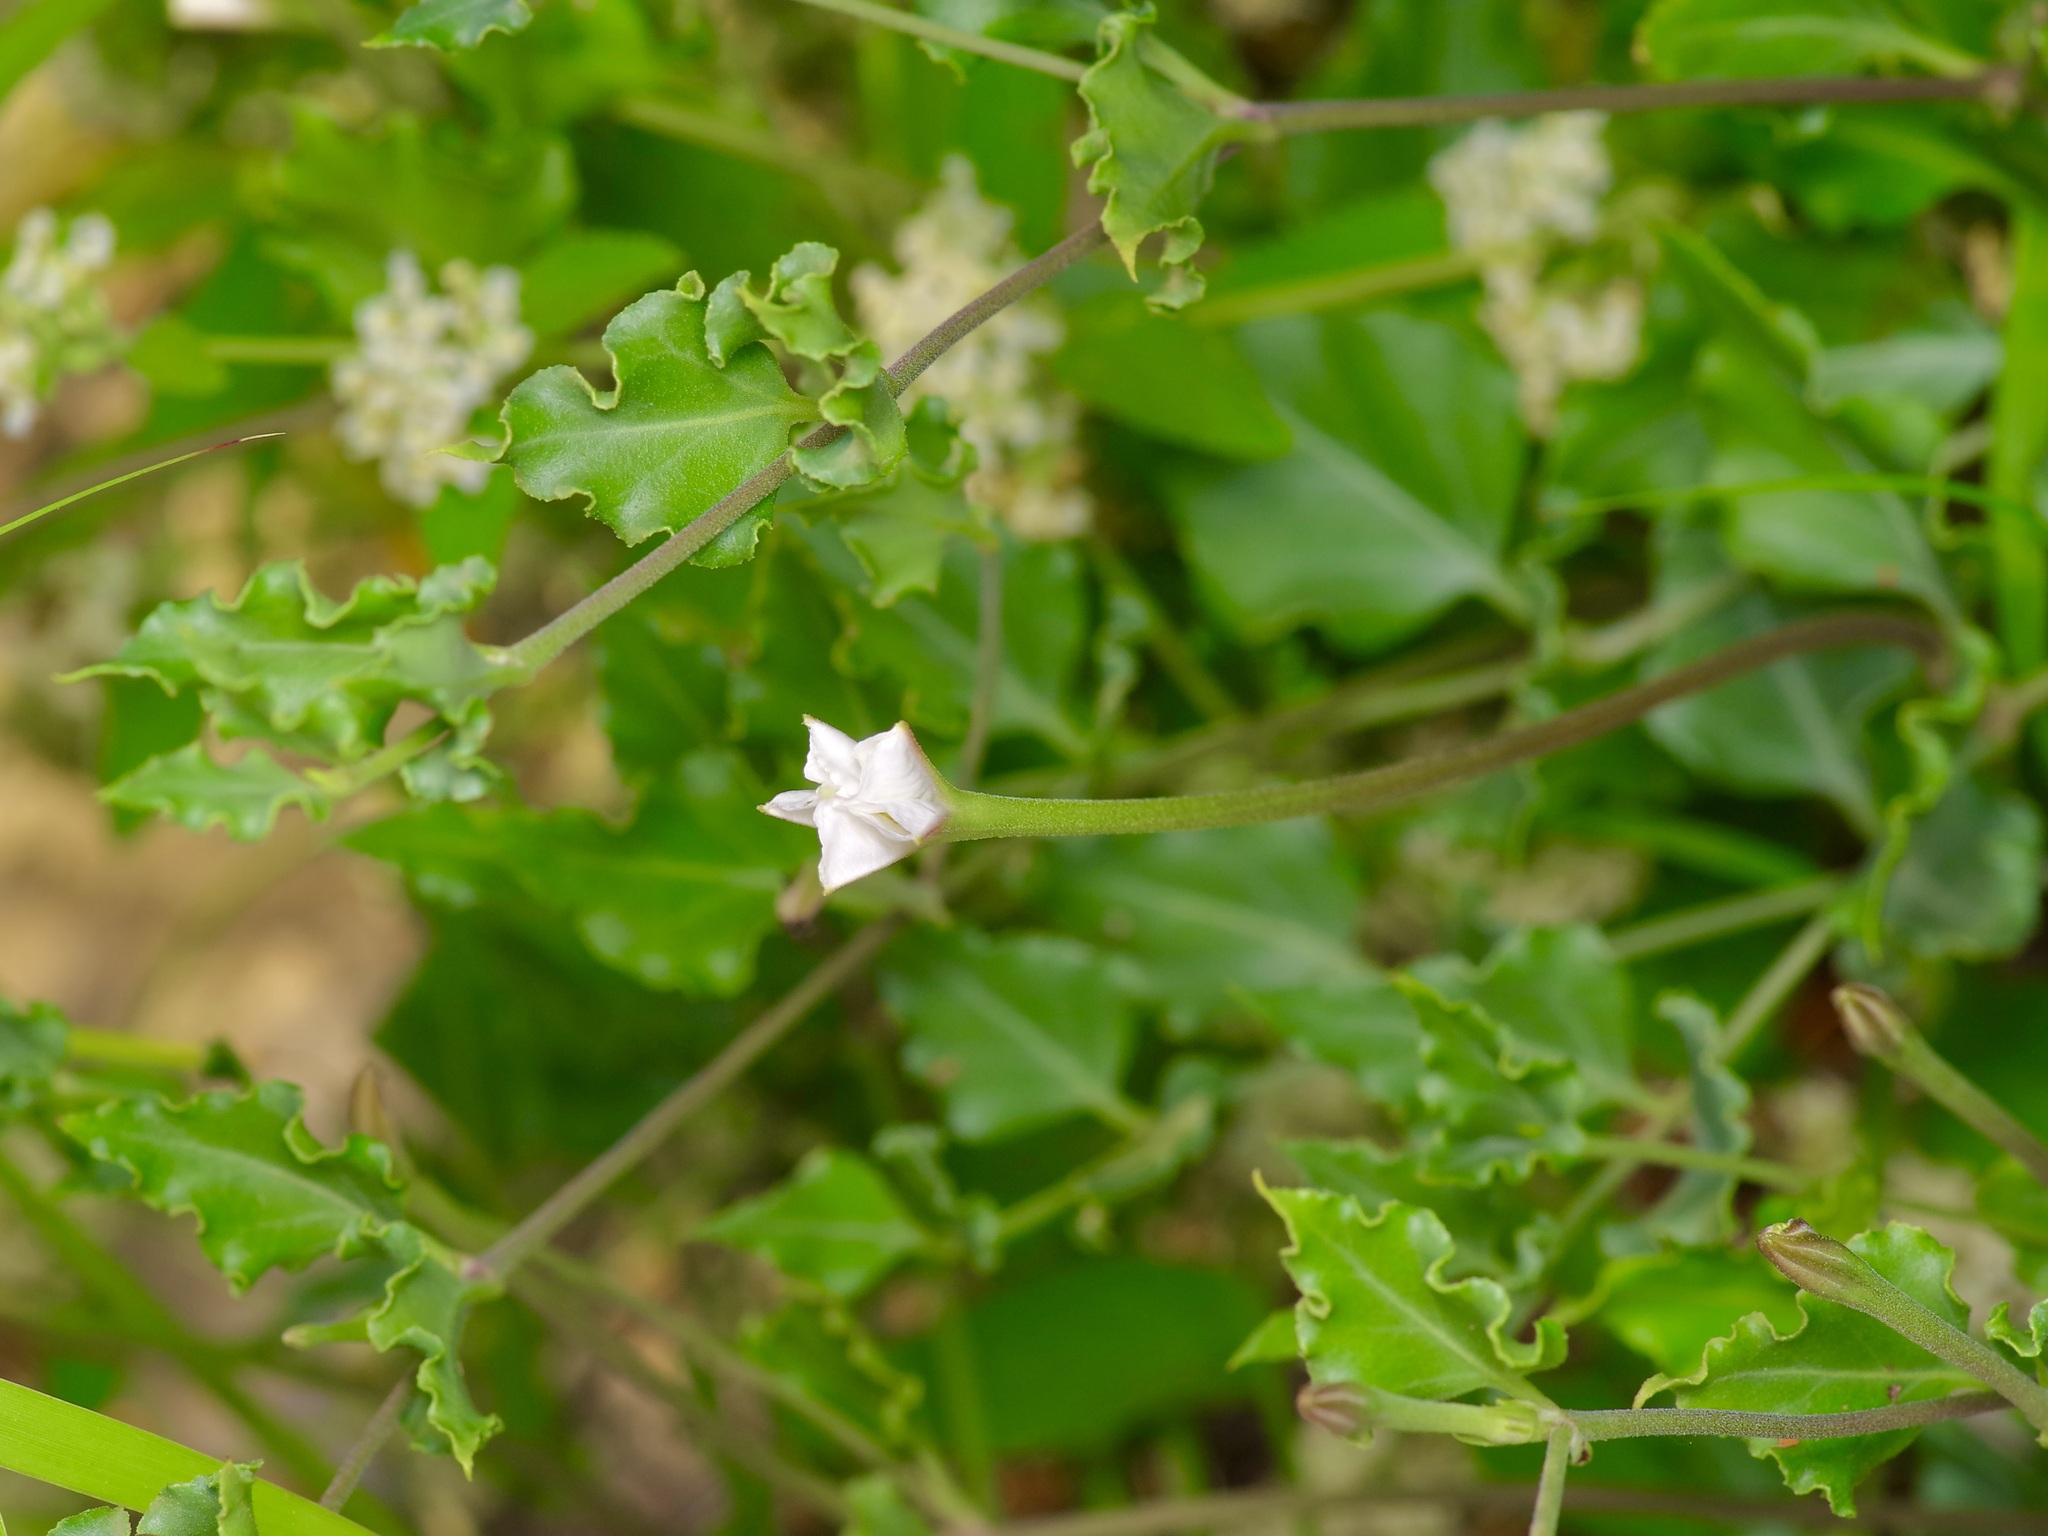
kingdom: Plantae
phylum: Tracheophyta
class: Magnoliopsida
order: Caryophyllales
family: Nyctaginaceae
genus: Acleisanthes
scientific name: Acleisanthes longiflora
